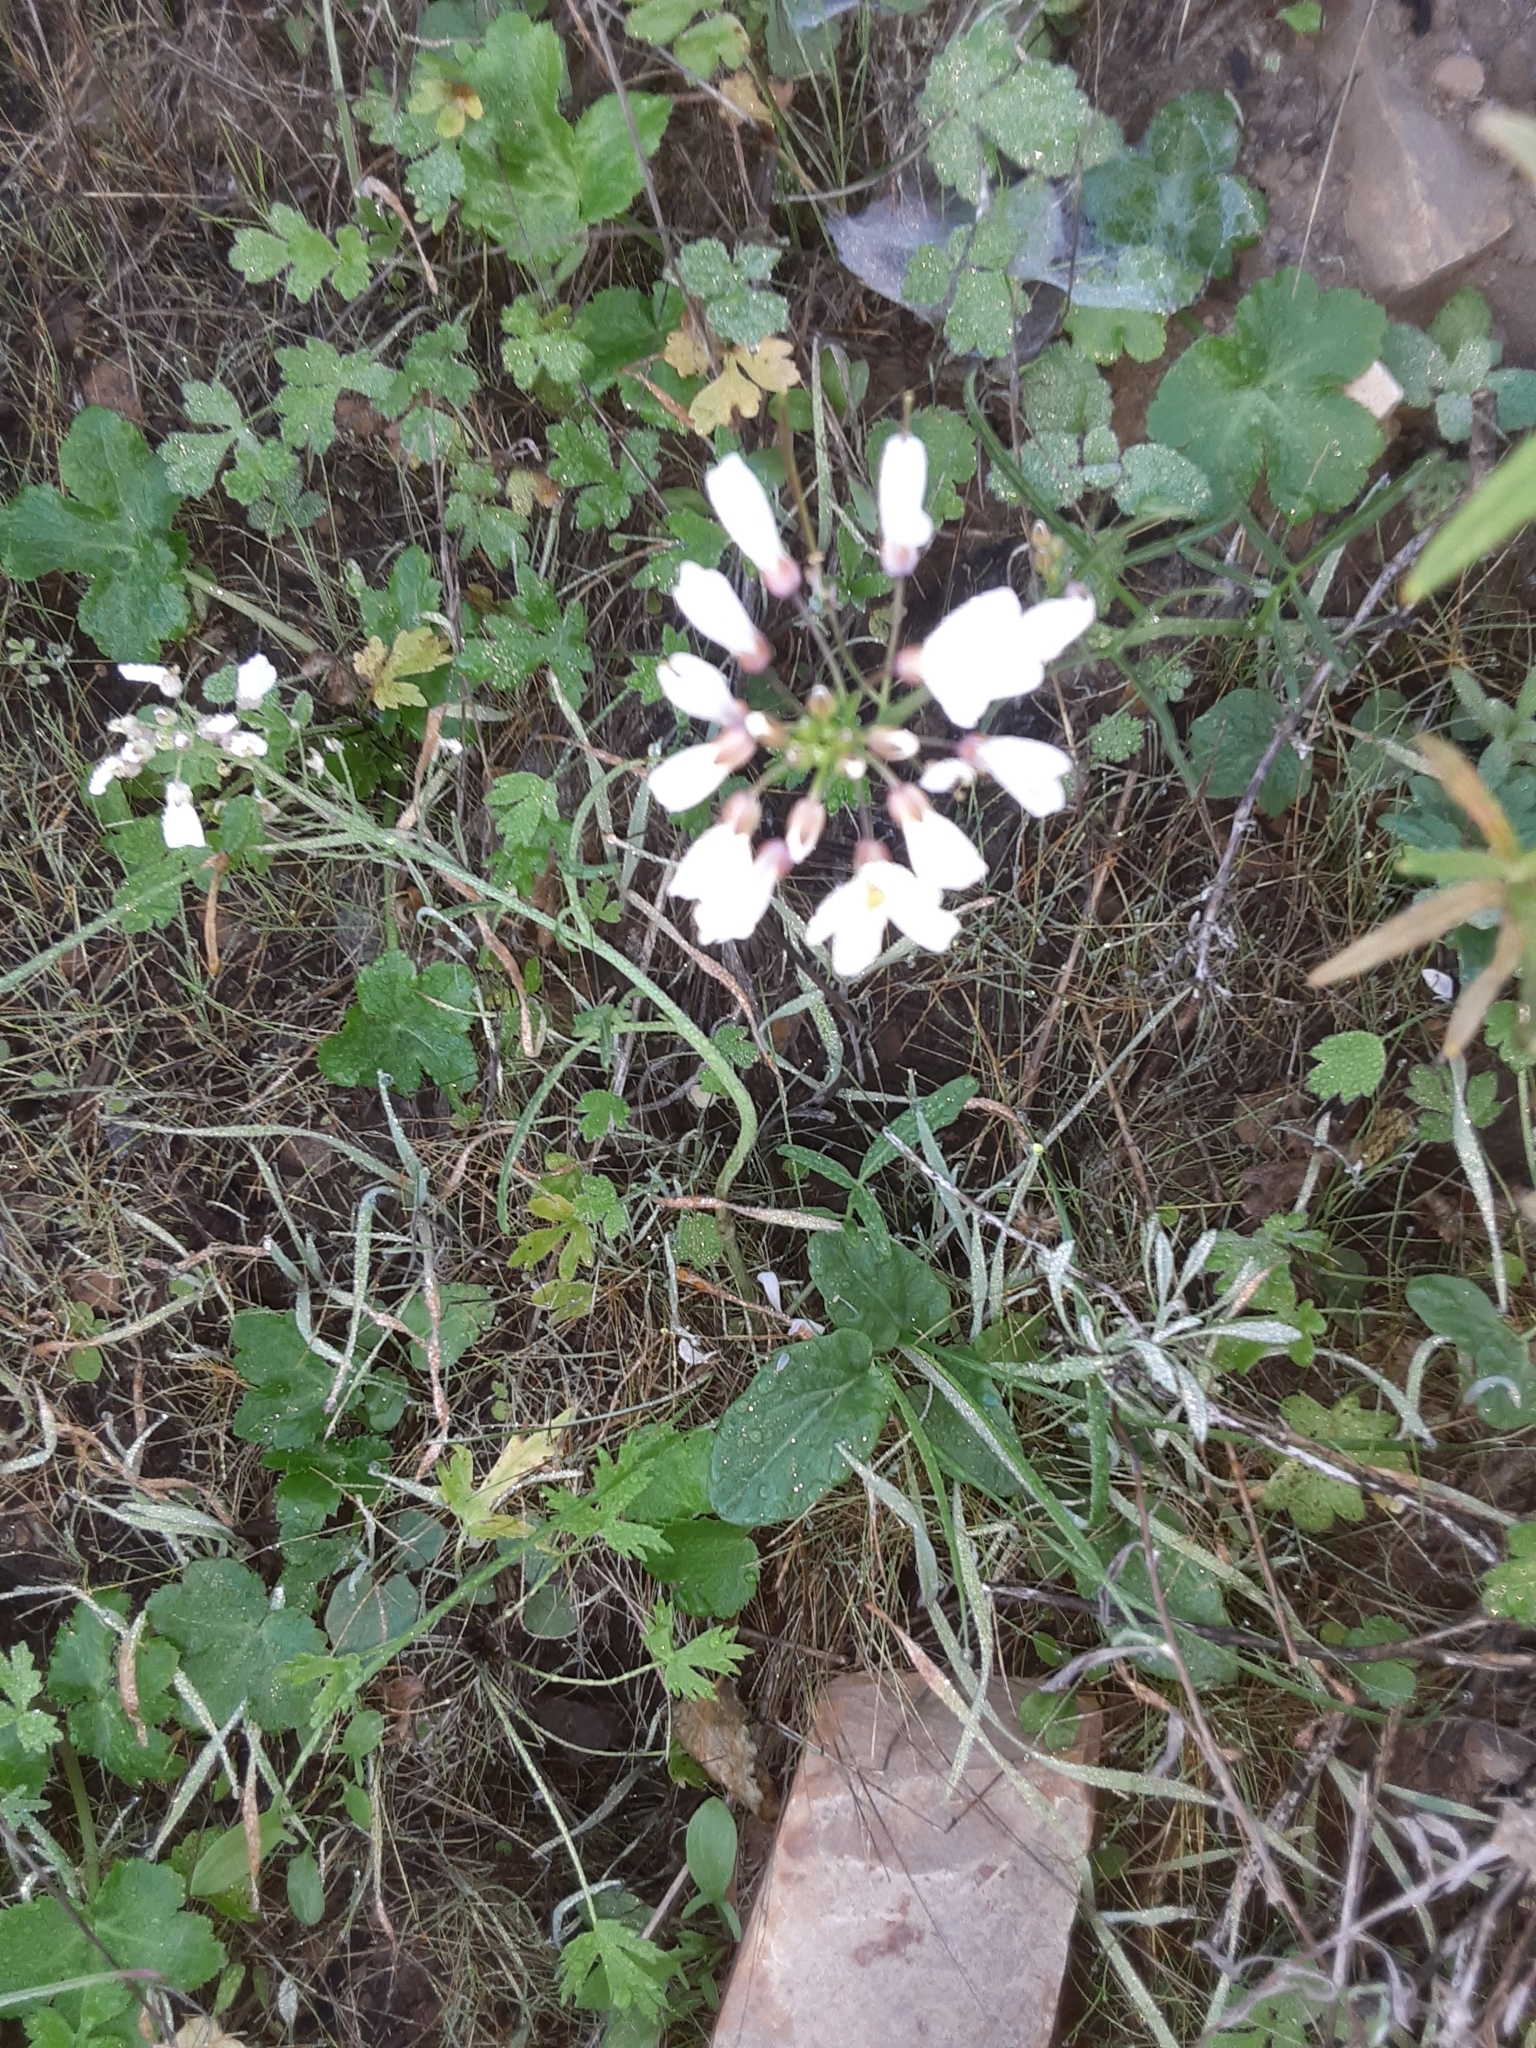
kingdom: Plantae
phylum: Tracheophyta
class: Magnoliopsida
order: Brassicales
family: Brassicaceae
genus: Cardamine
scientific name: Cardamine californica
